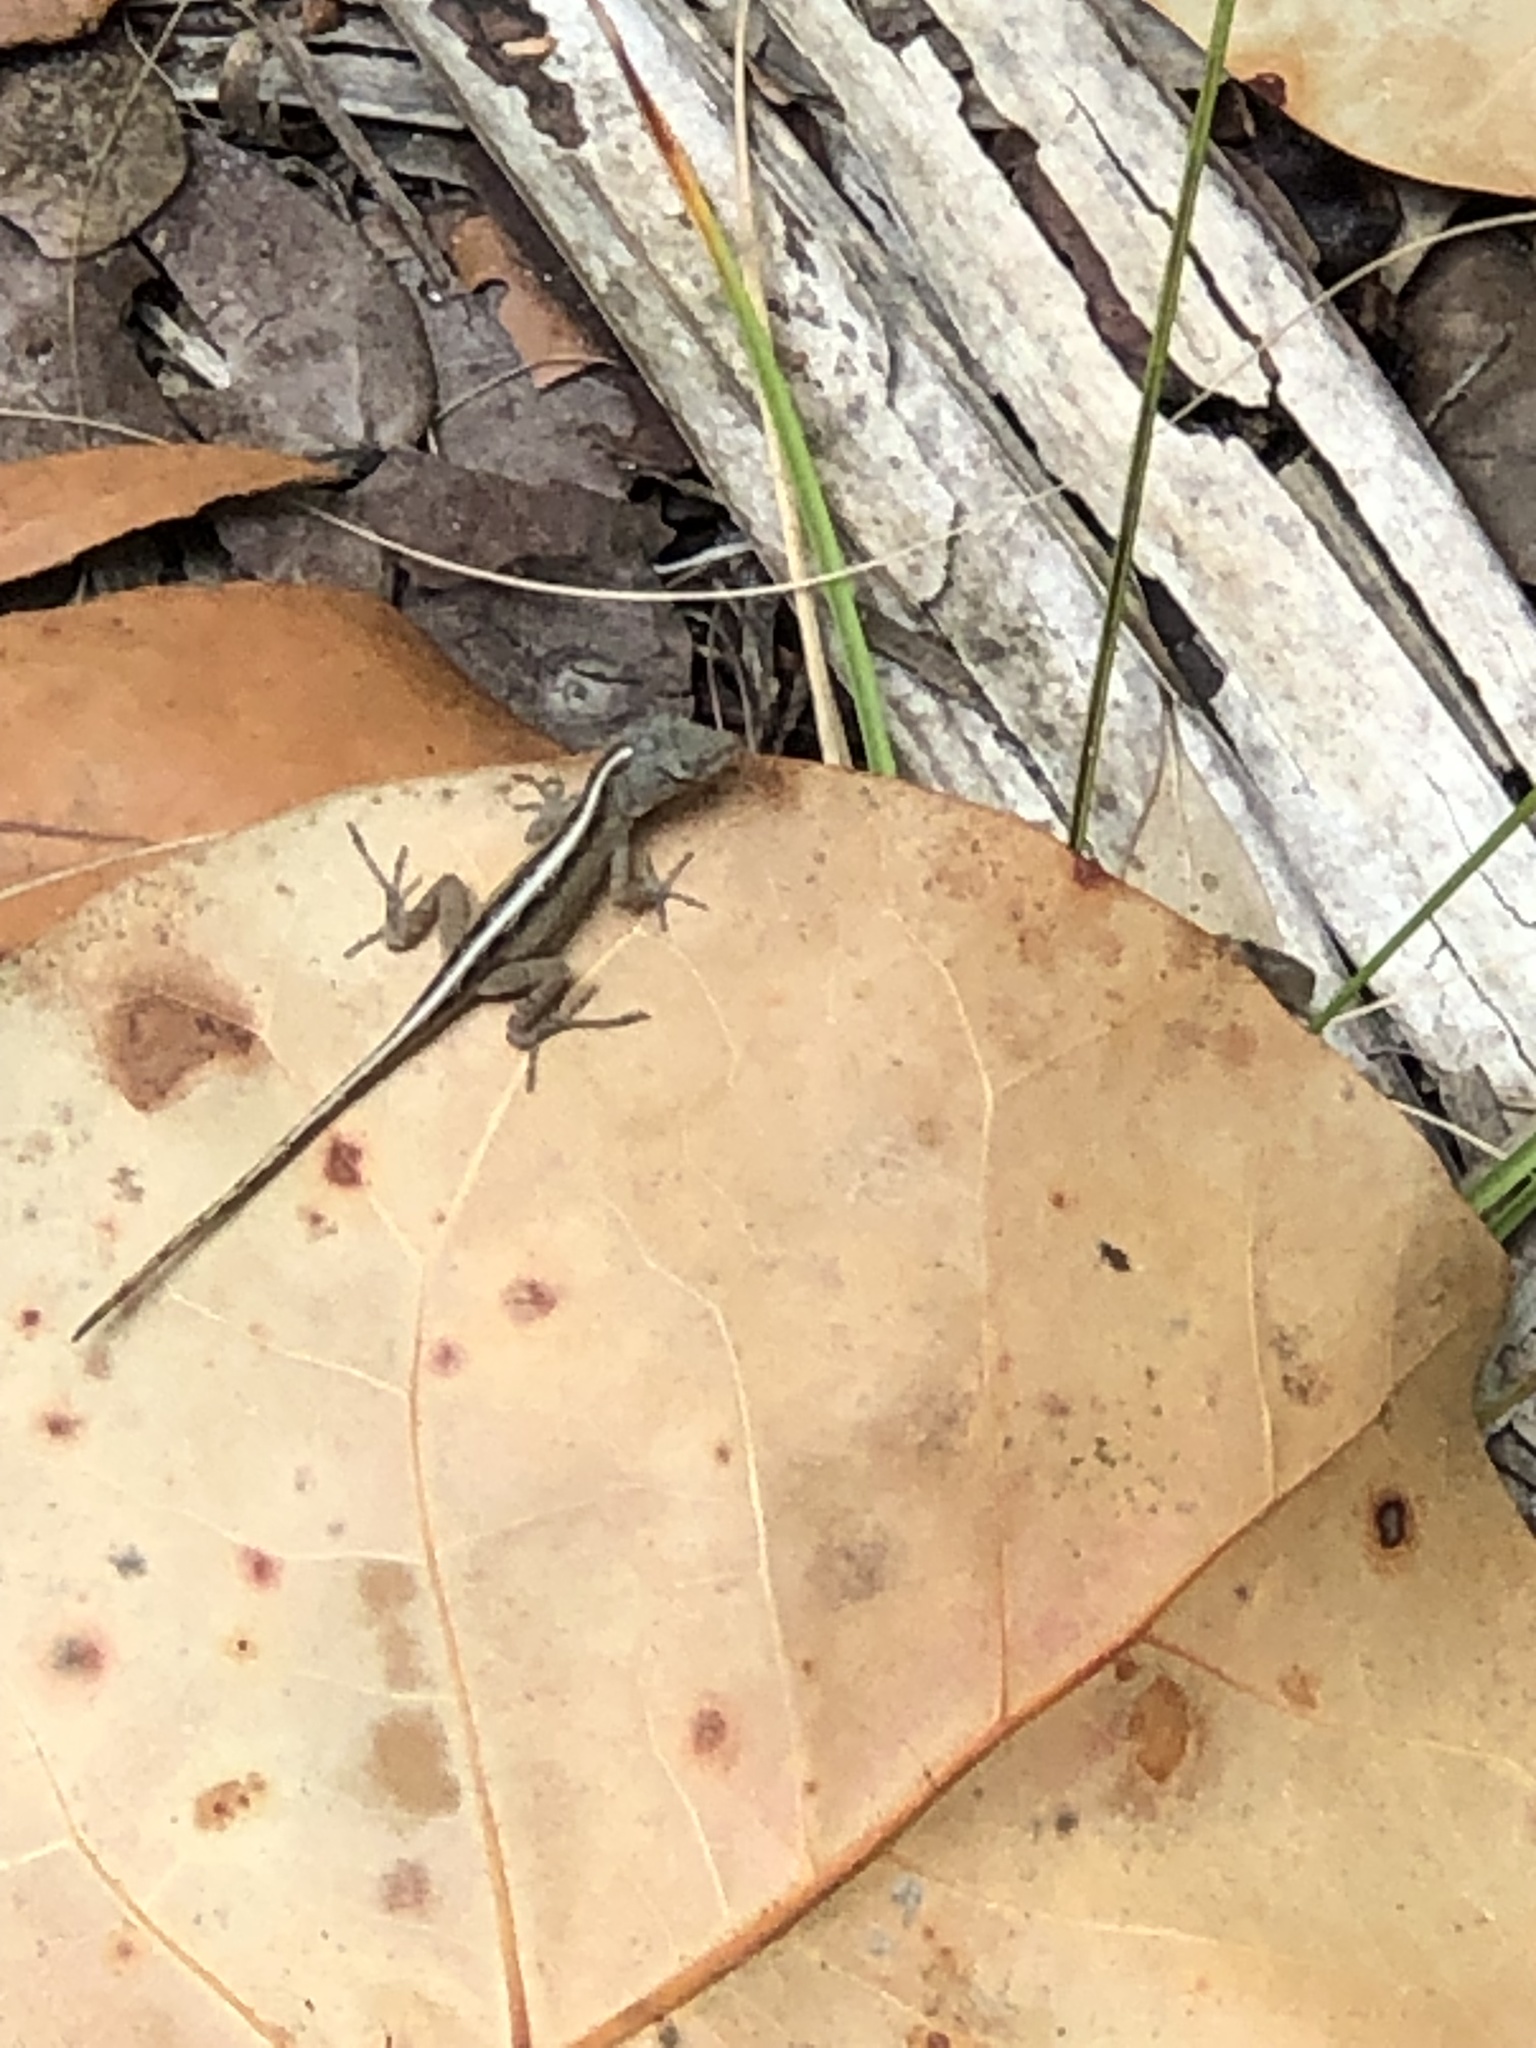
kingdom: Animalia
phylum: Chordata
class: Squamata
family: Dactyloidae
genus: Anolis
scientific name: Anolis sagrei
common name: Brown anole
